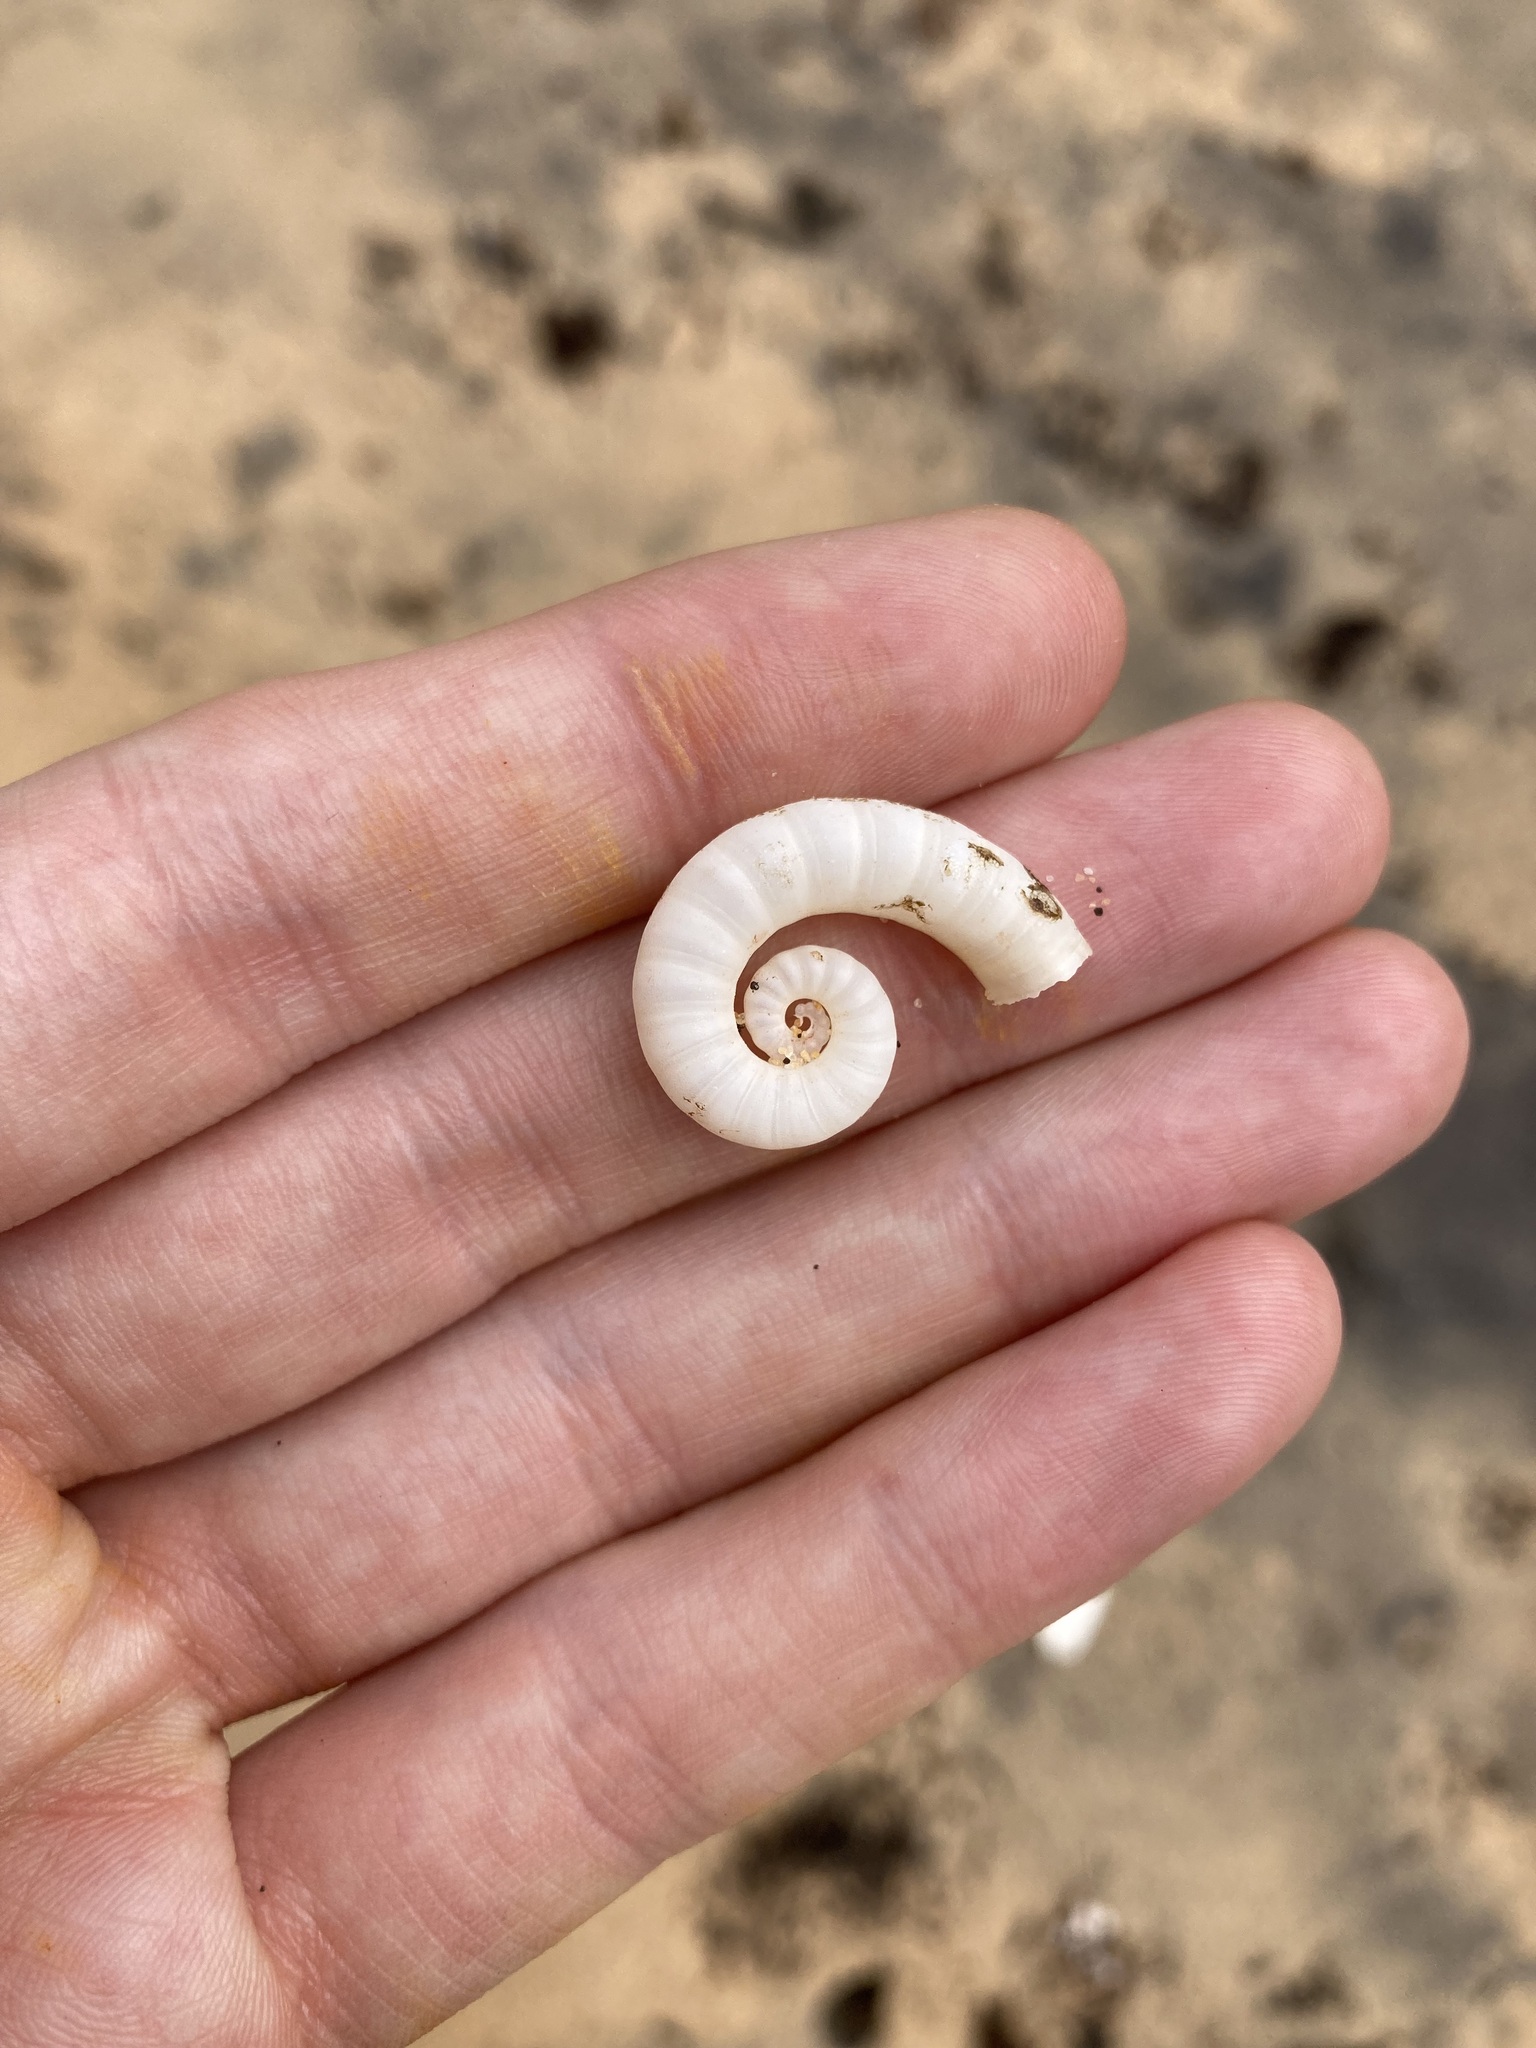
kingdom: Animalia
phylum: Mollusca
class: Cephalopoda
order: Spirulida
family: Spirulidae
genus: Spirula
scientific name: Spirula spirula
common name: Ram's horn squid
